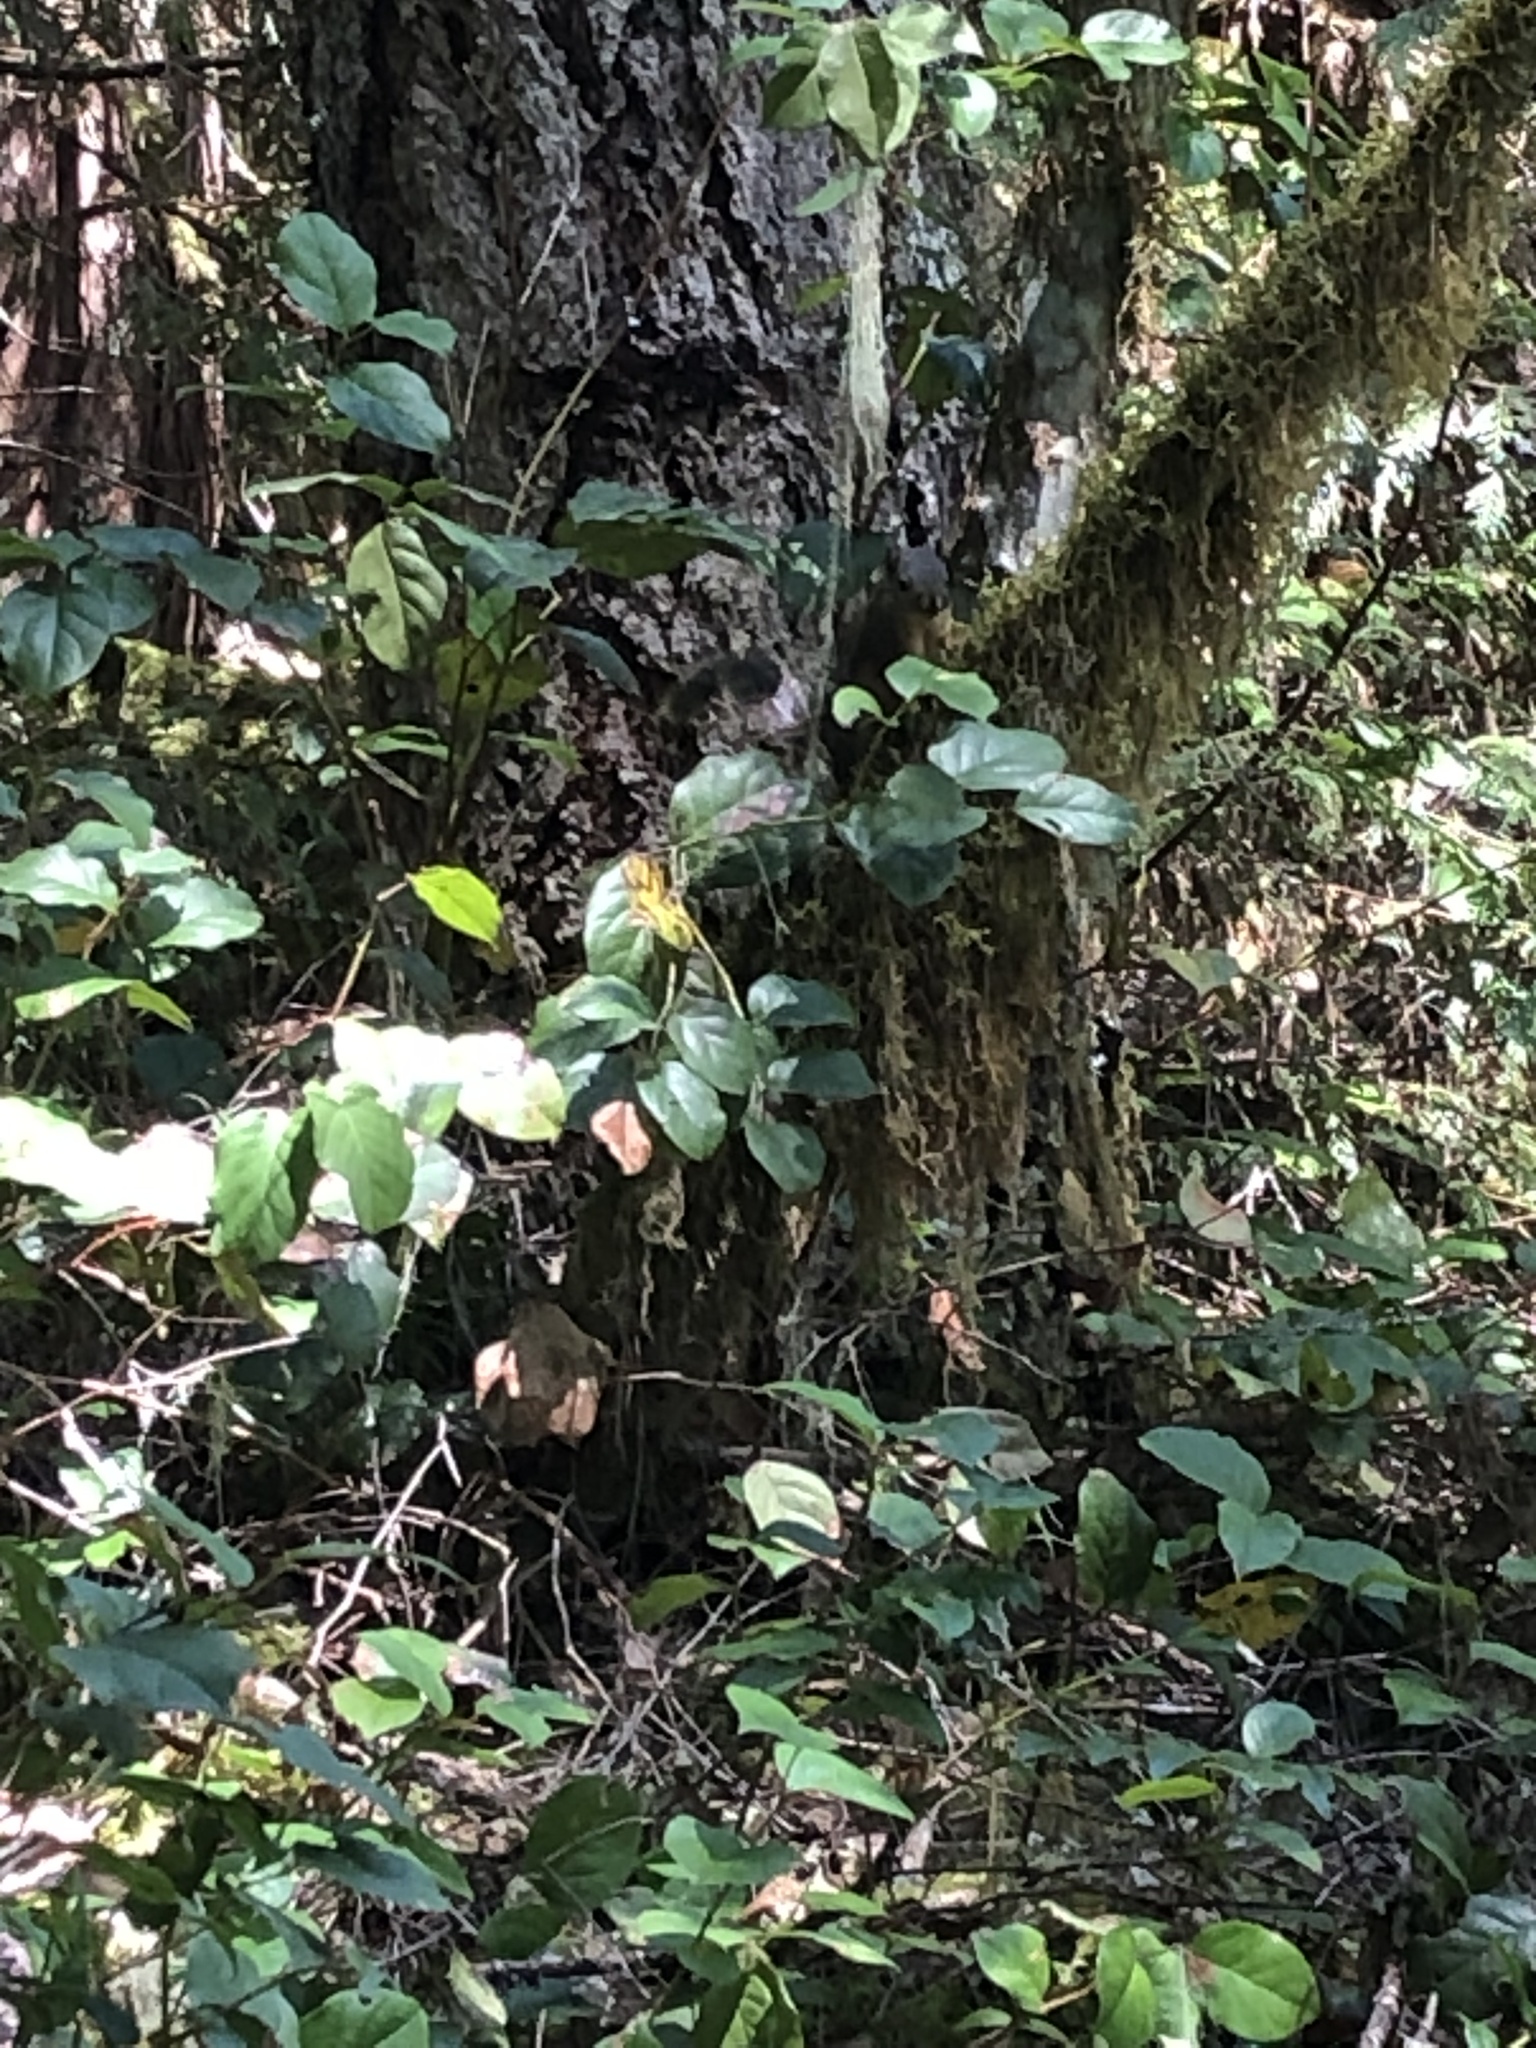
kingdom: Animalia
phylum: Chordata
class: Mammalia
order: Rodentia
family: Sciuridae
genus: Tamiasciurus
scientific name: Tamiasciurus douglasii
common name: Douglas's squirrel
